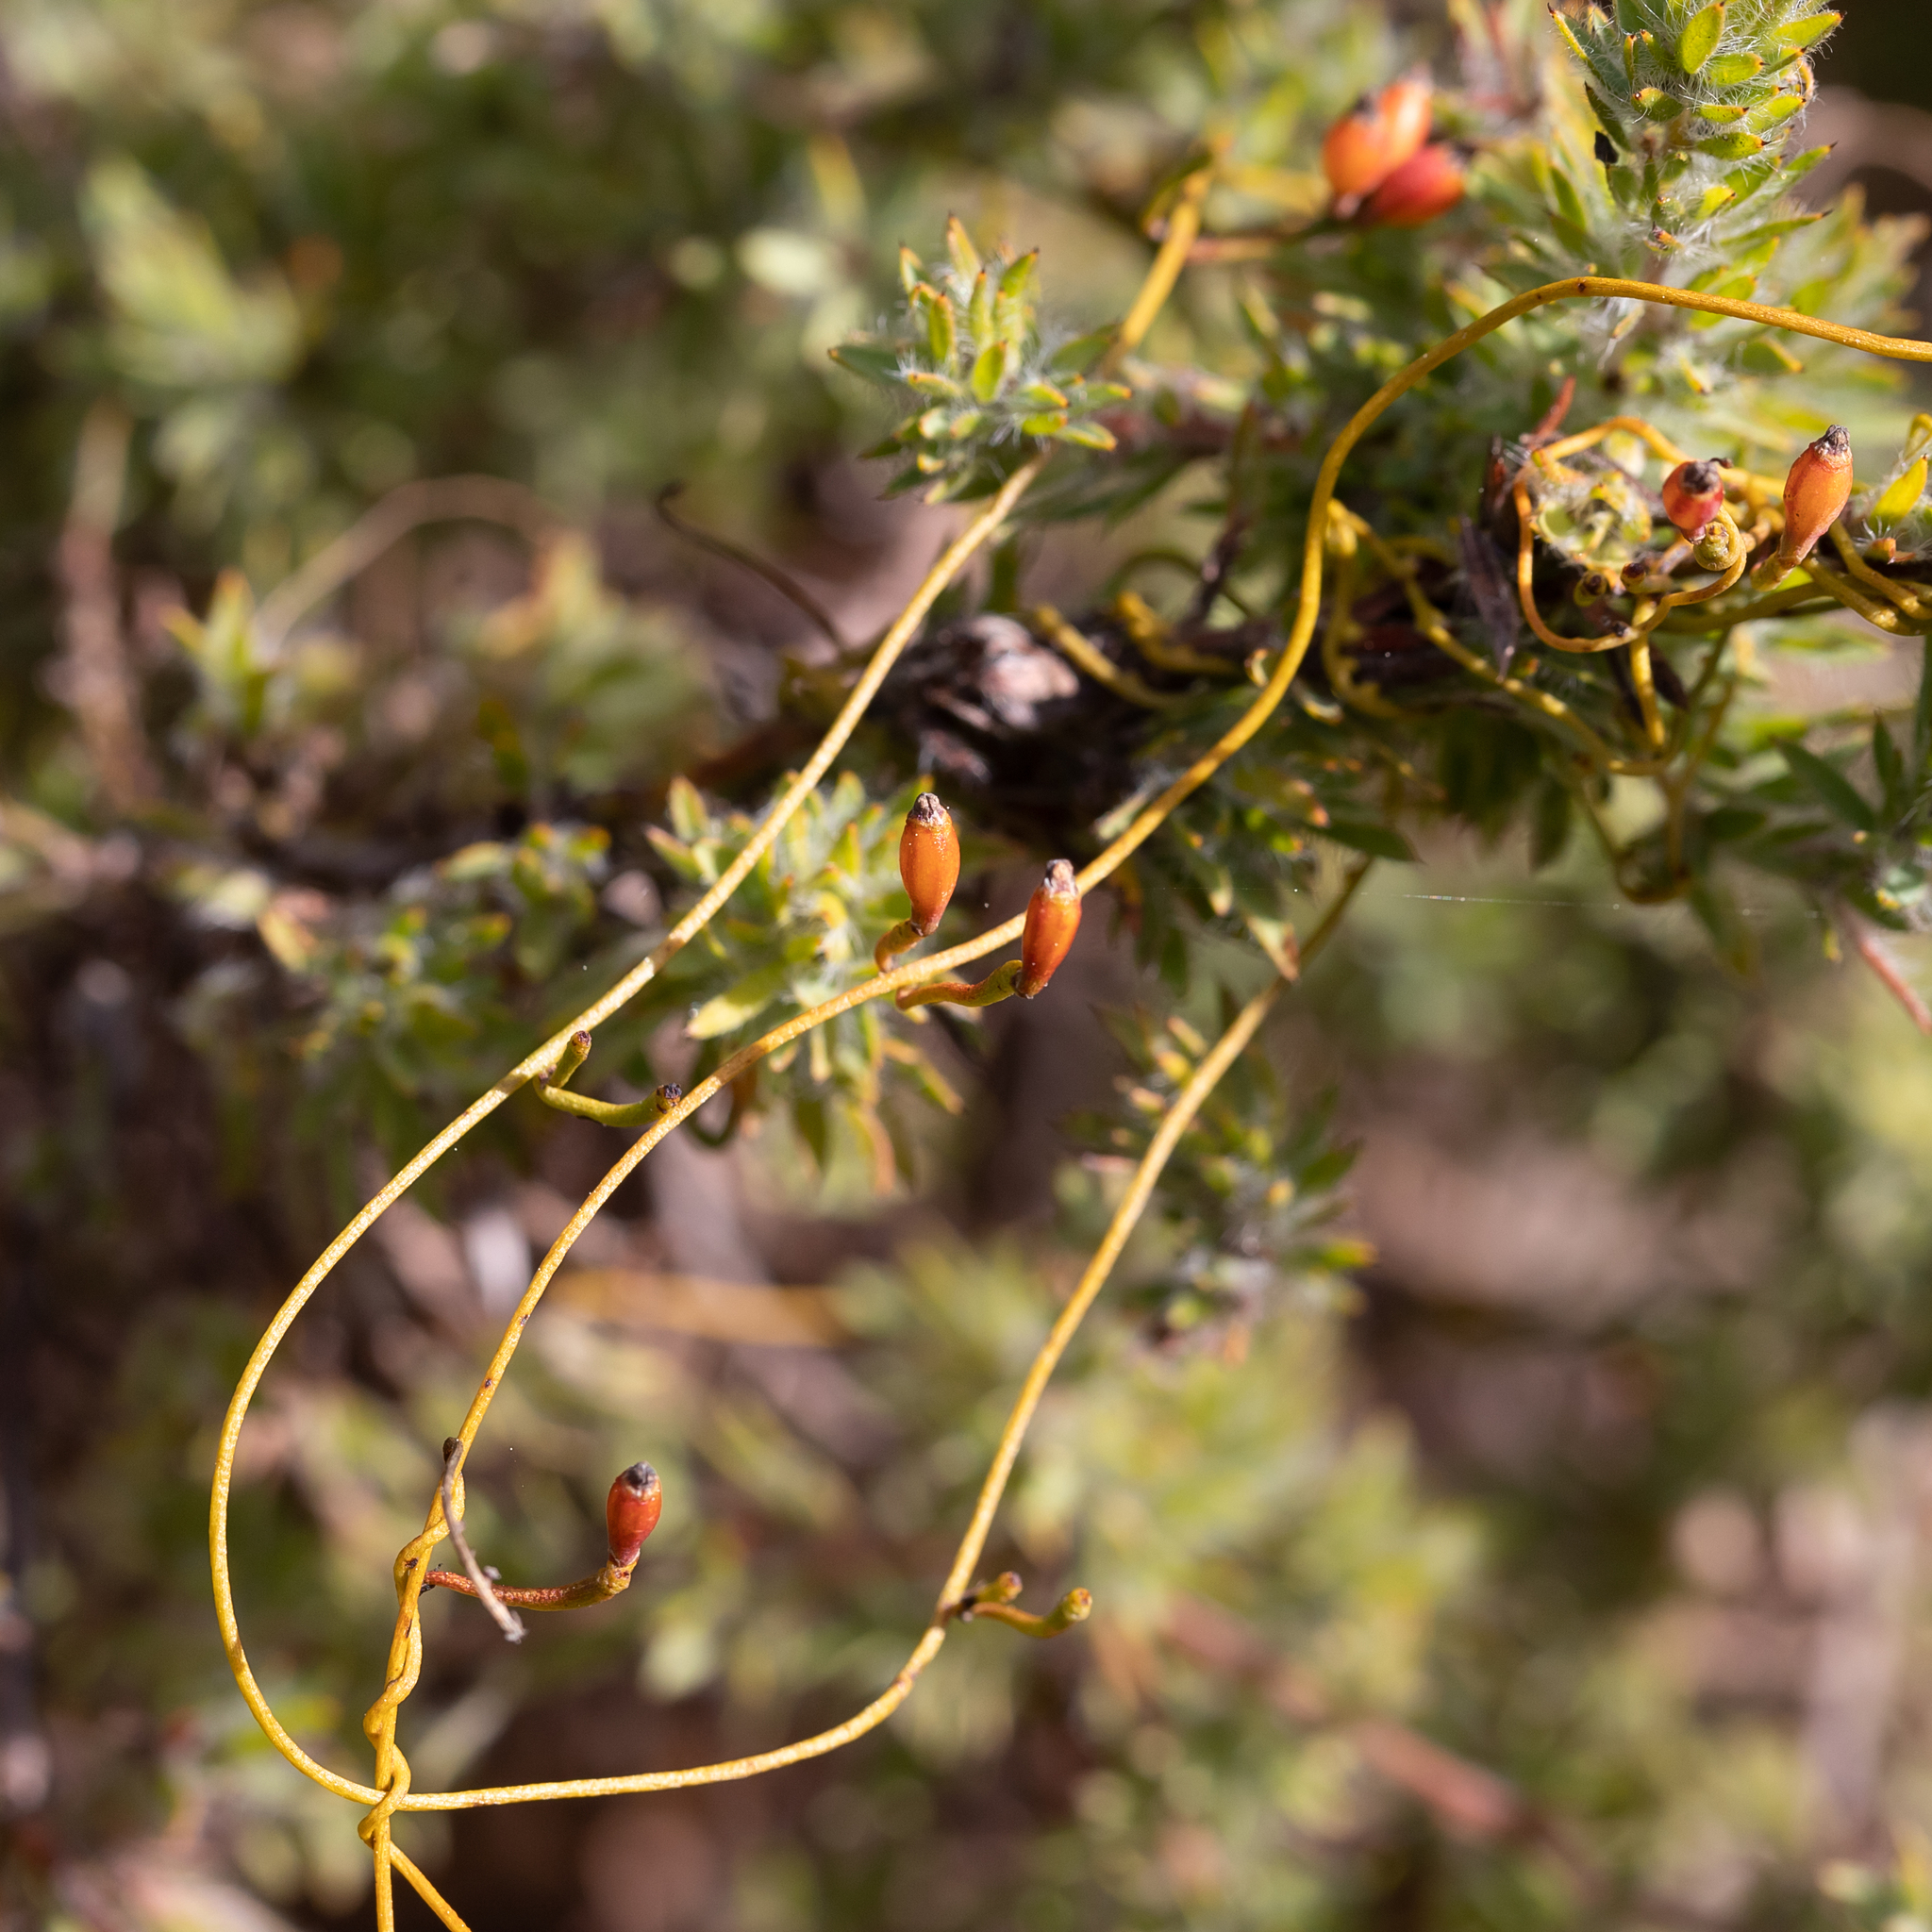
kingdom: Plantae
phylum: Tracheophyta
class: Magnoliopsida
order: Laurales
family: Lauraceae
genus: Cassytha
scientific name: Cassytha glabella
